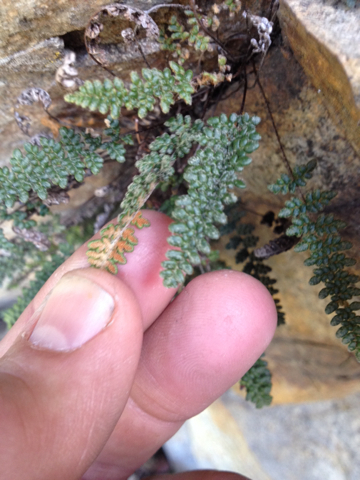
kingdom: Plantae
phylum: Tracheophyta
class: Polypodiopsida
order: Polypodiales
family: Pteridaceae
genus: Myriopteris
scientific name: Myriopteris gracillima
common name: Lace fern
